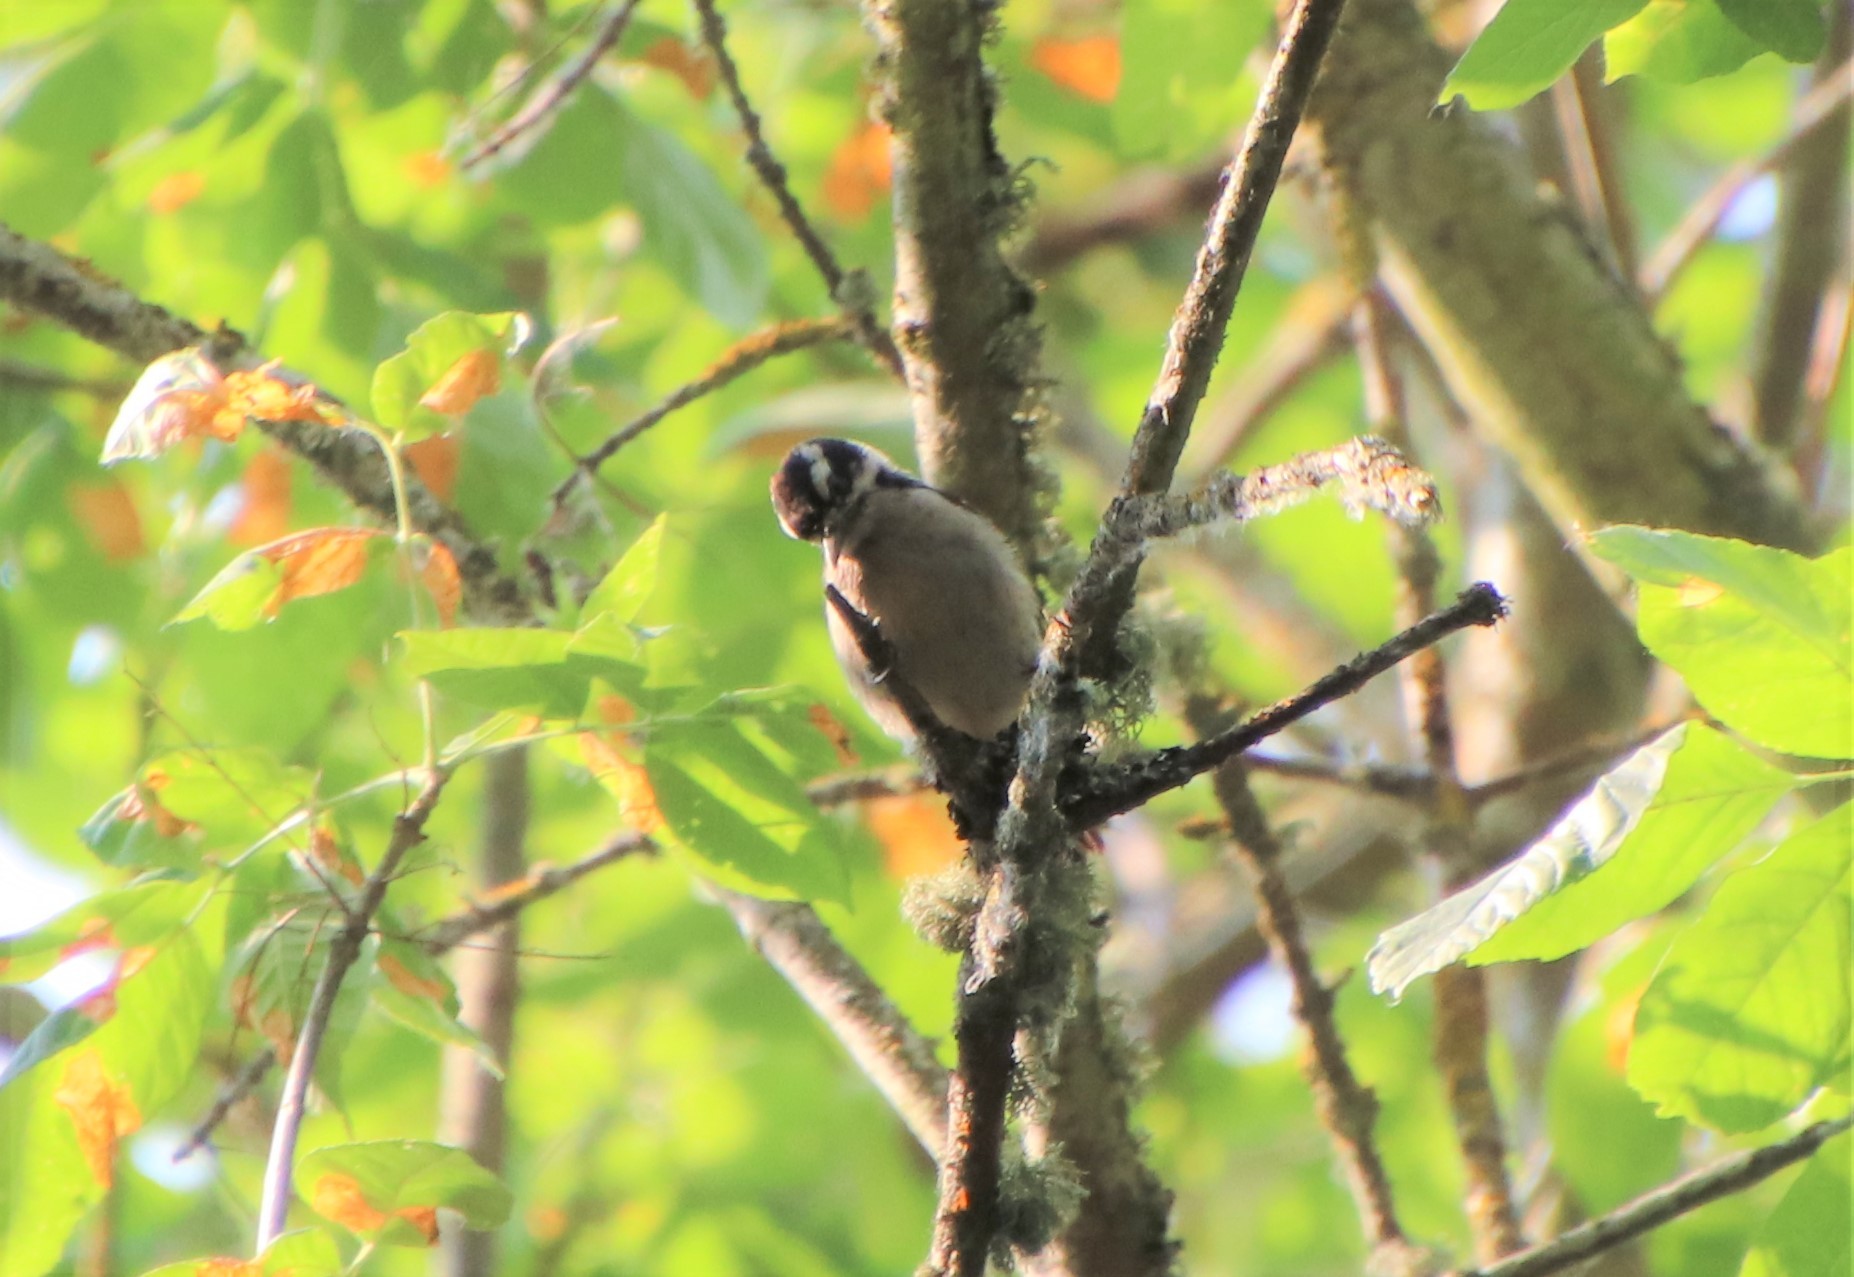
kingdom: Animalia
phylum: Chordata
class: Aves
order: Piciformes
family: Picidae
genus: Dryobates
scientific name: Dryobates pubescens
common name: Downy woodpecker
